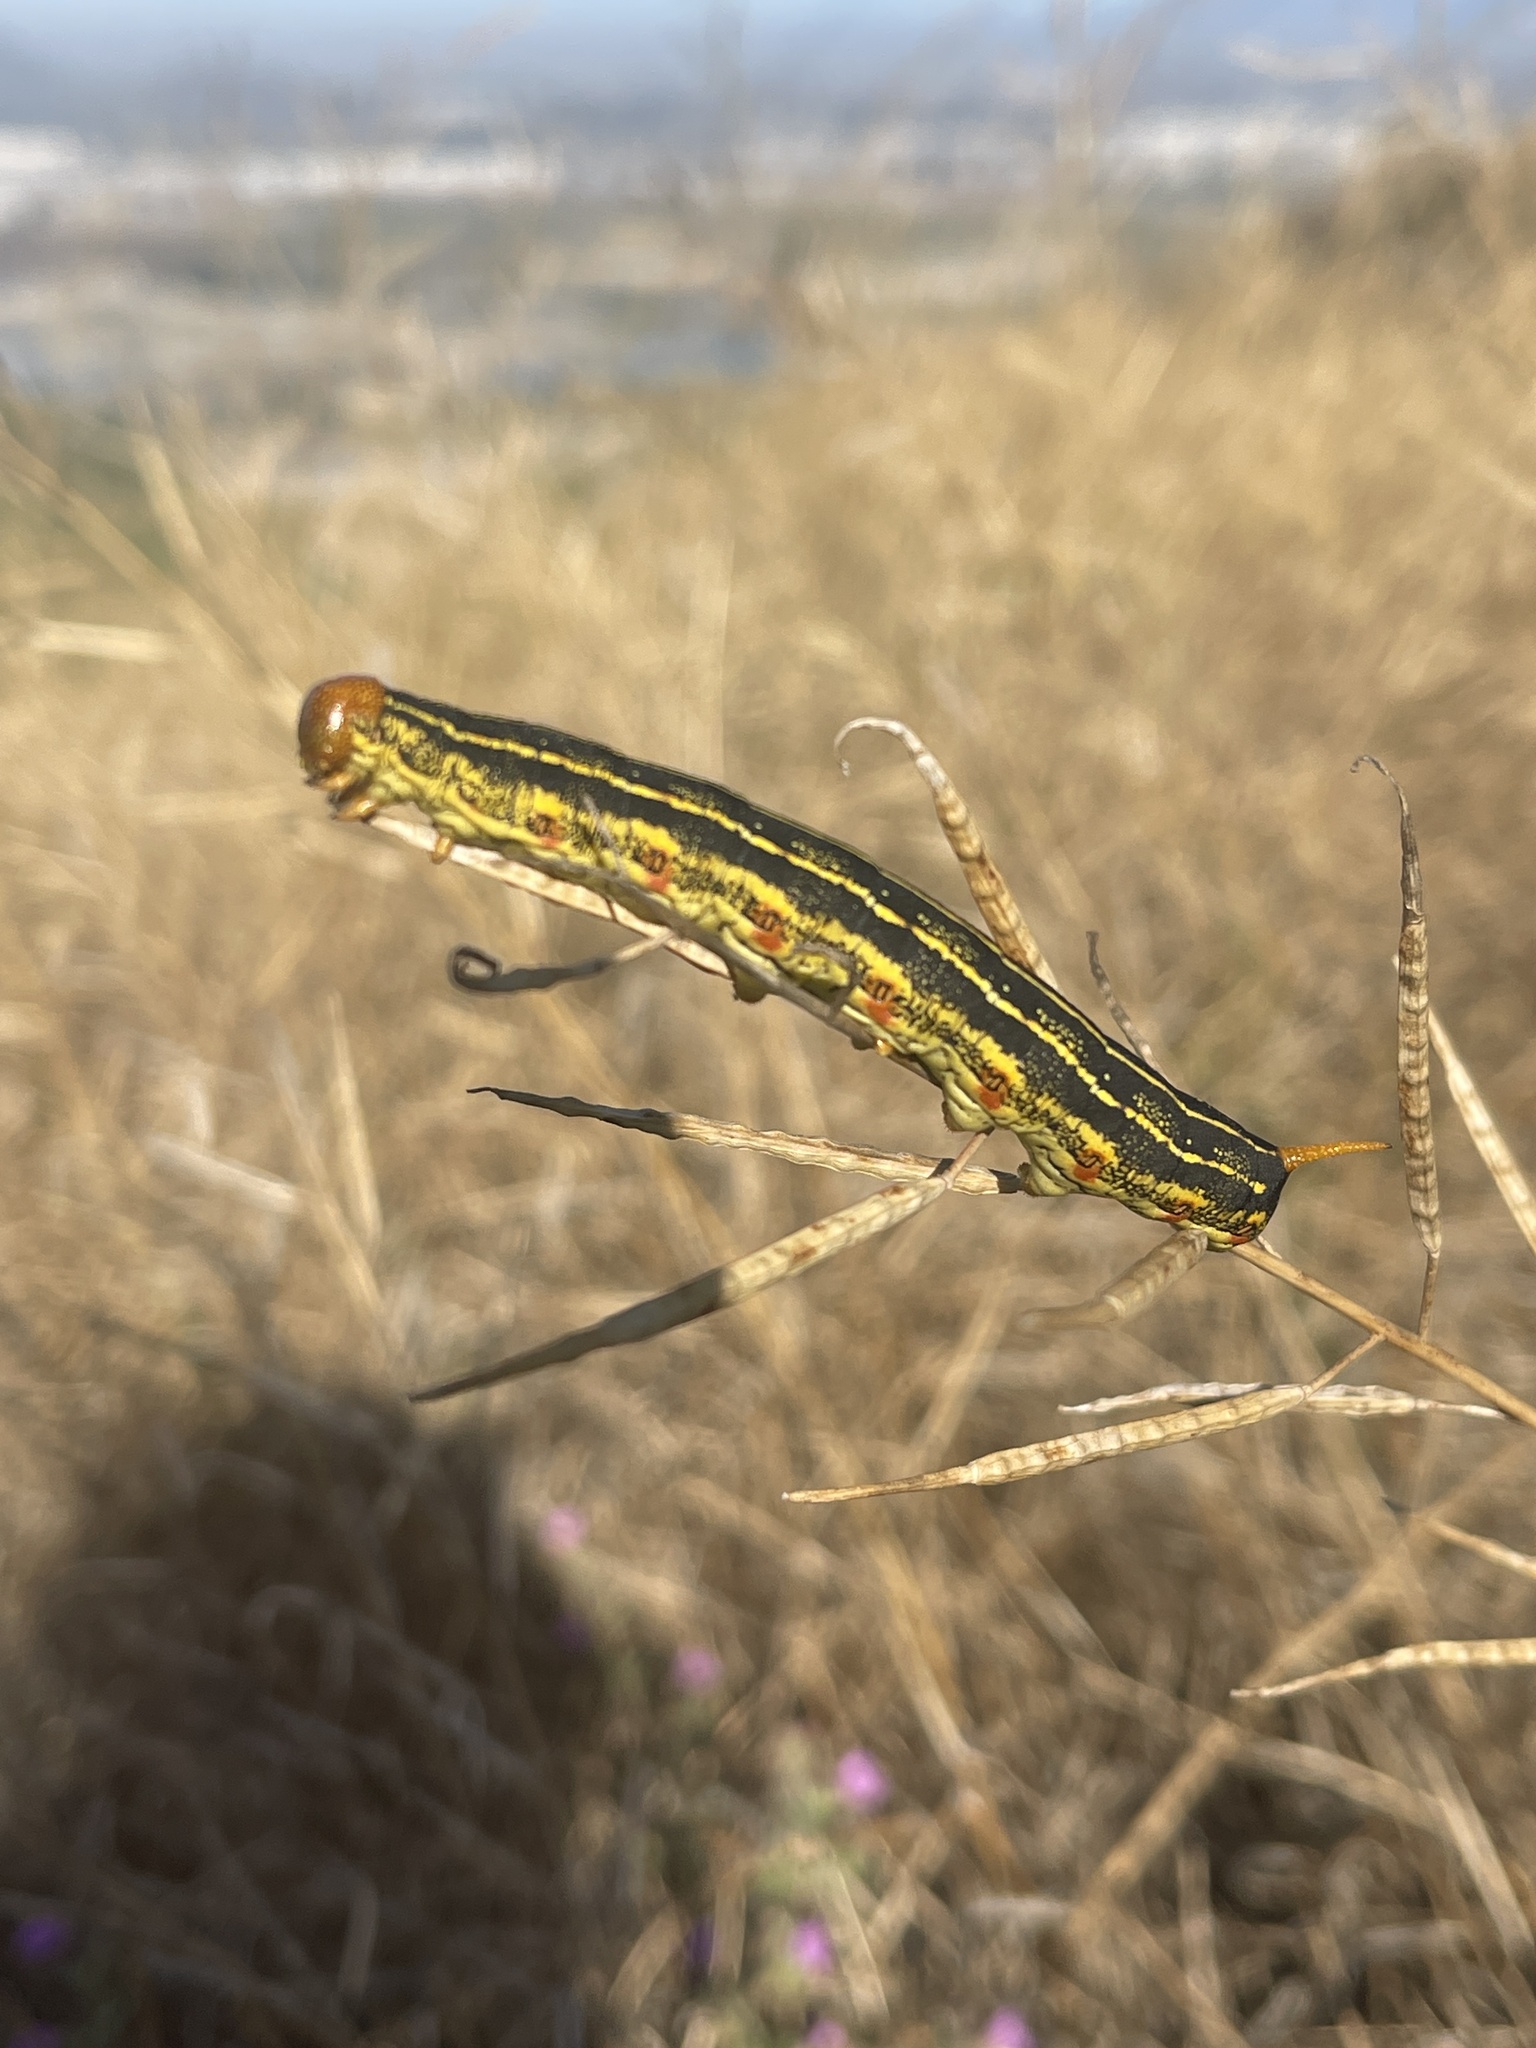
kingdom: Animalia
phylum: Arthropoda
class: Insecta
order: Lepidoptera
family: Sphingidae
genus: Hyles
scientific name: Hyles lineata
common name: White-lined sphinx
